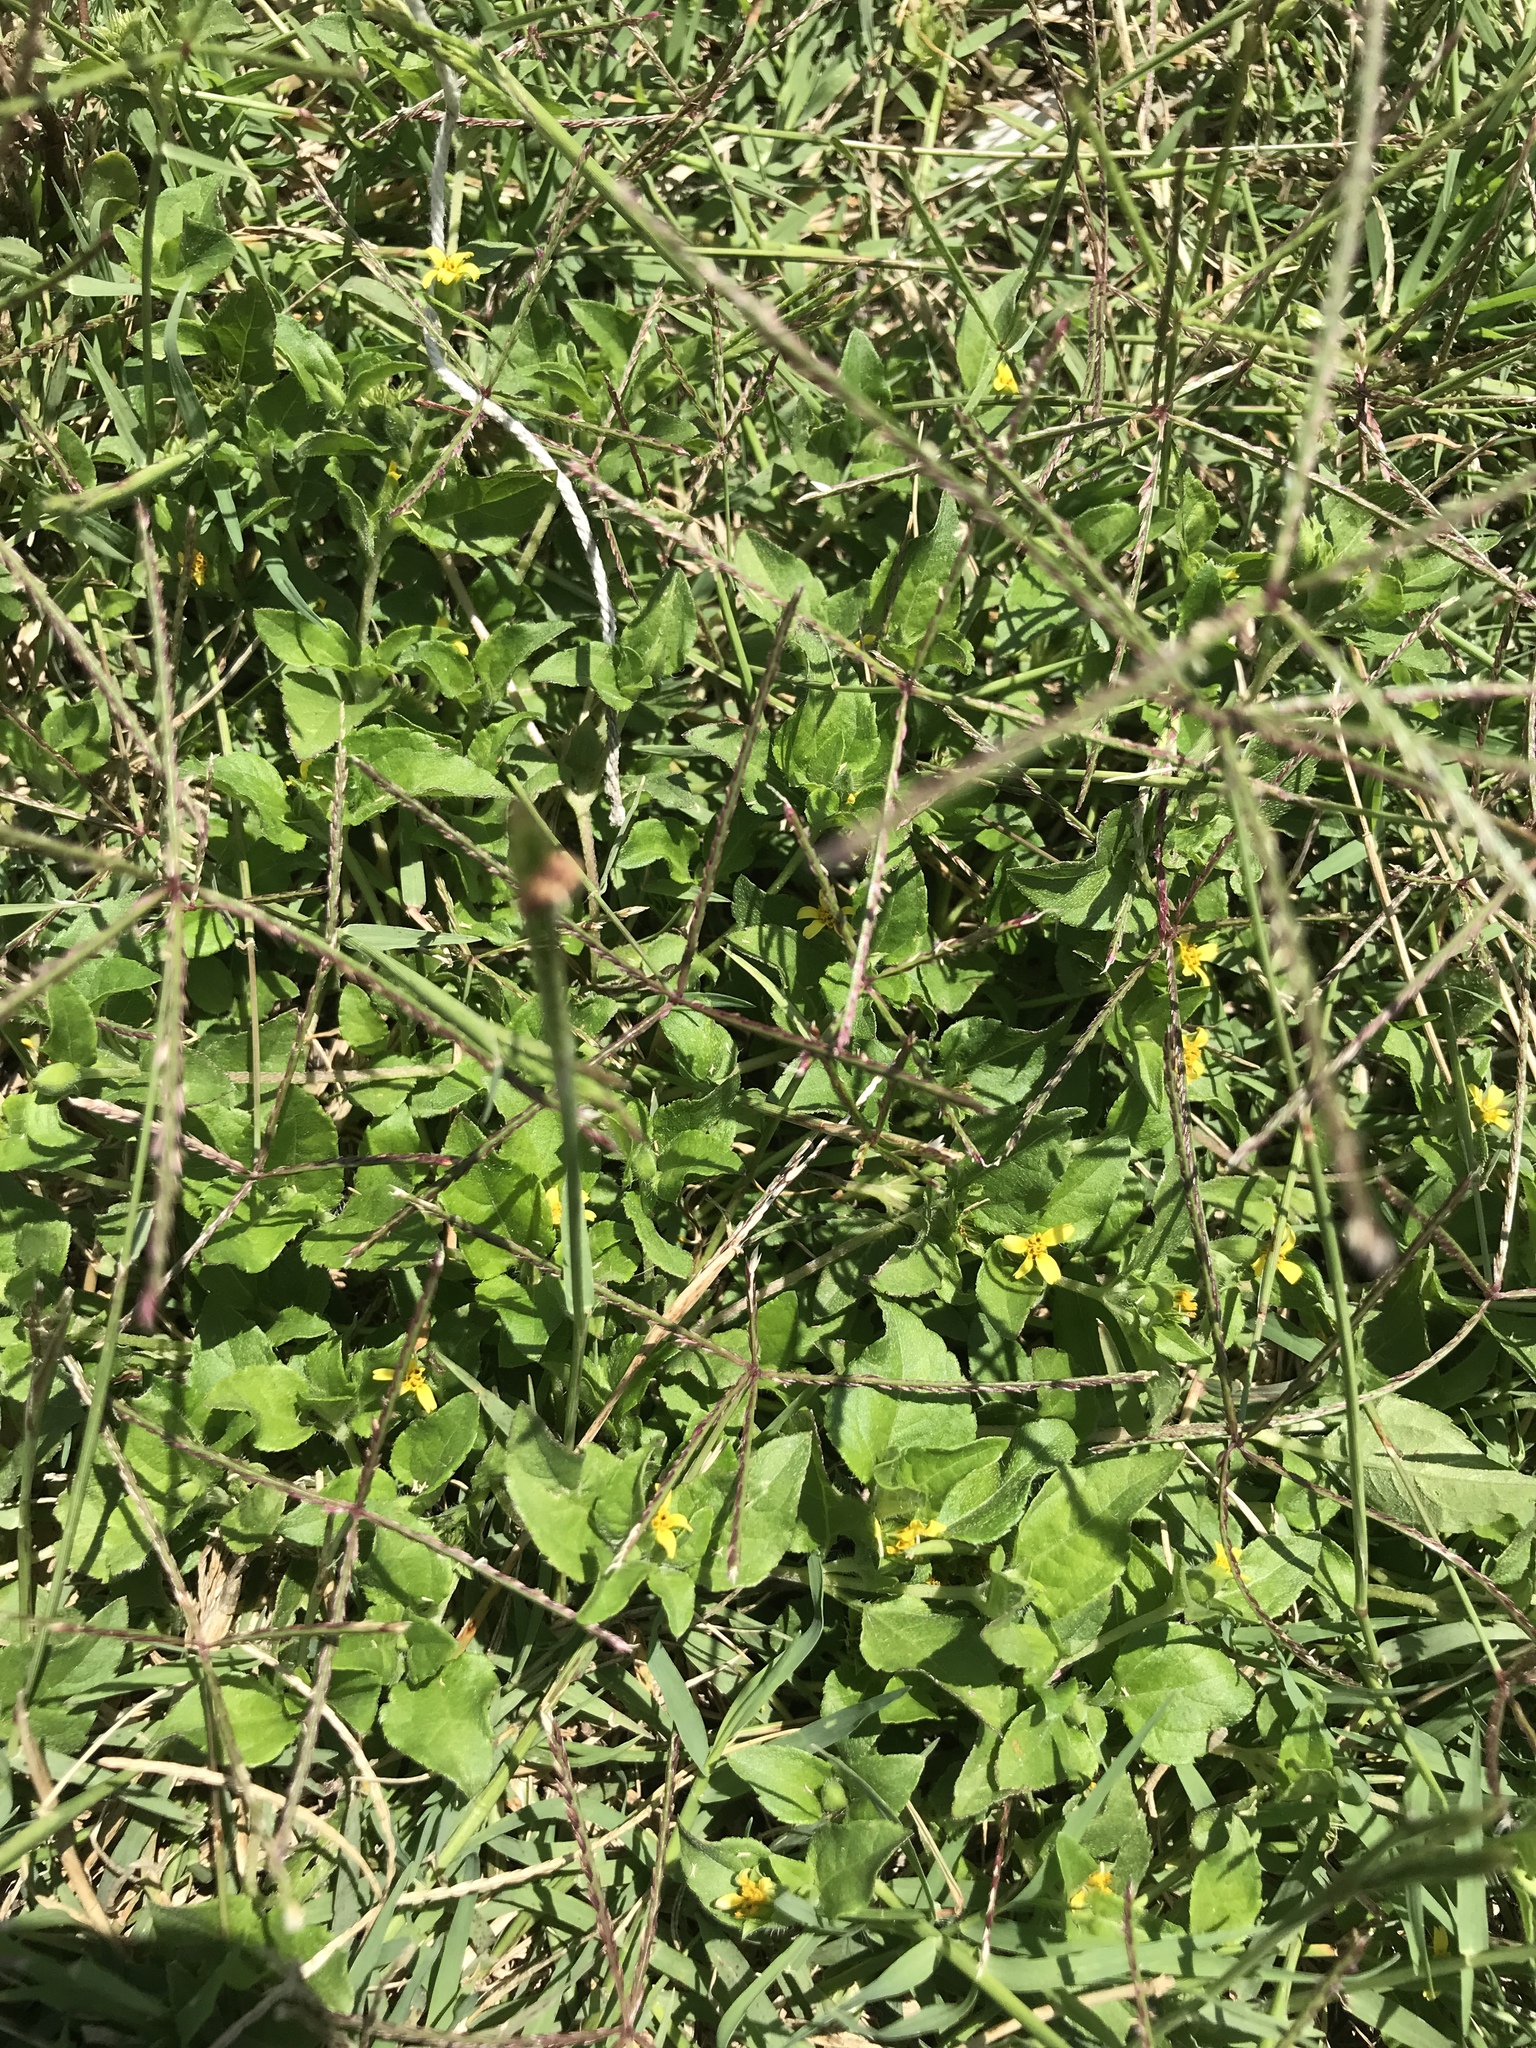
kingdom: Plantae
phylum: Tracheophyta
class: Magnoliopsida
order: Asterales
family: Asteraceae
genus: Calyptocarpus
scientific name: Calyptocarpus vialis
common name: Straggler daisy
